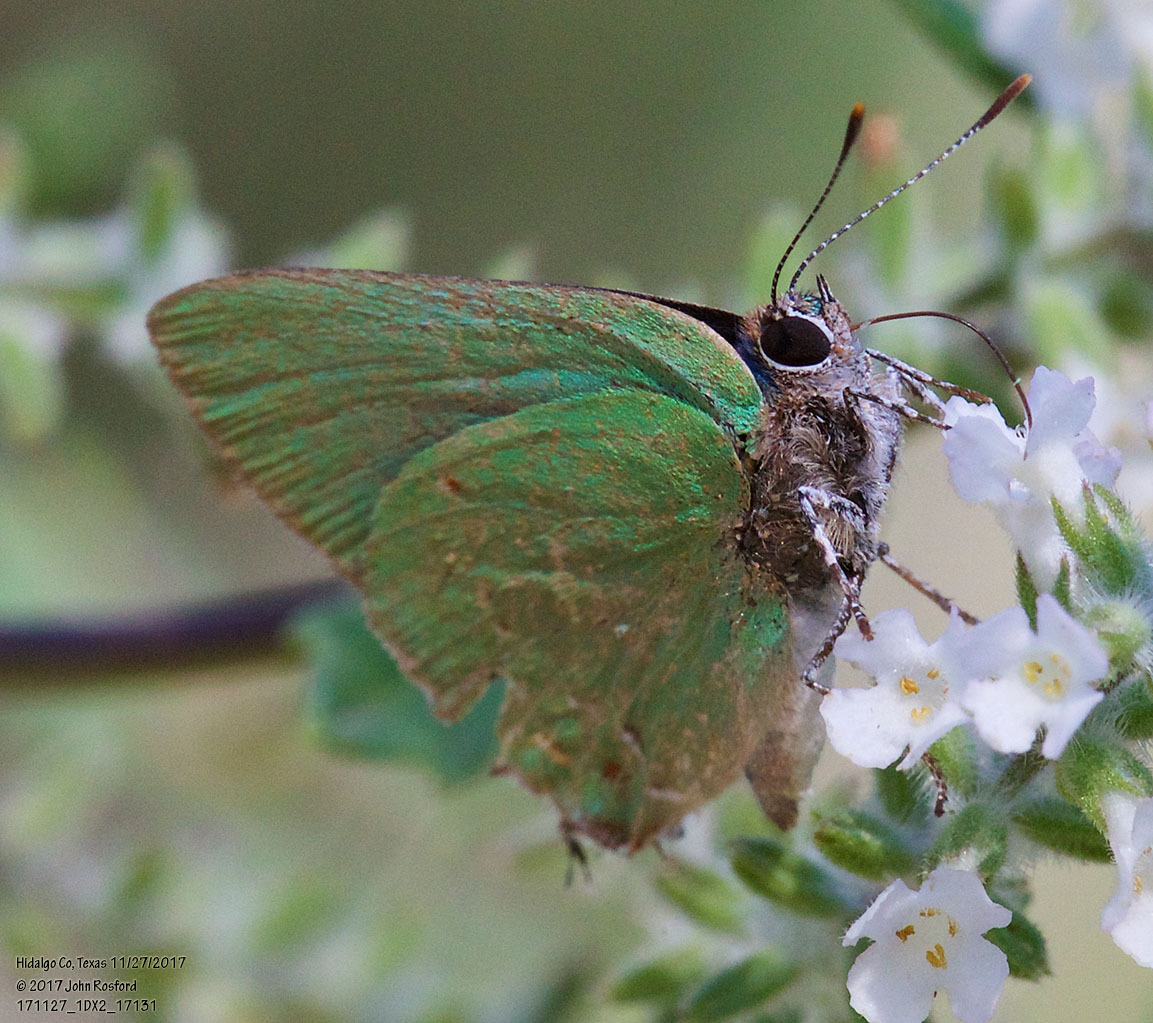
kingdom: Animalia
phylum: Arthropoda
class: Insecta
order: Lepidoptera
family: Lycaenidae
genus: Thecla
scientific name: Thecla herodotus
